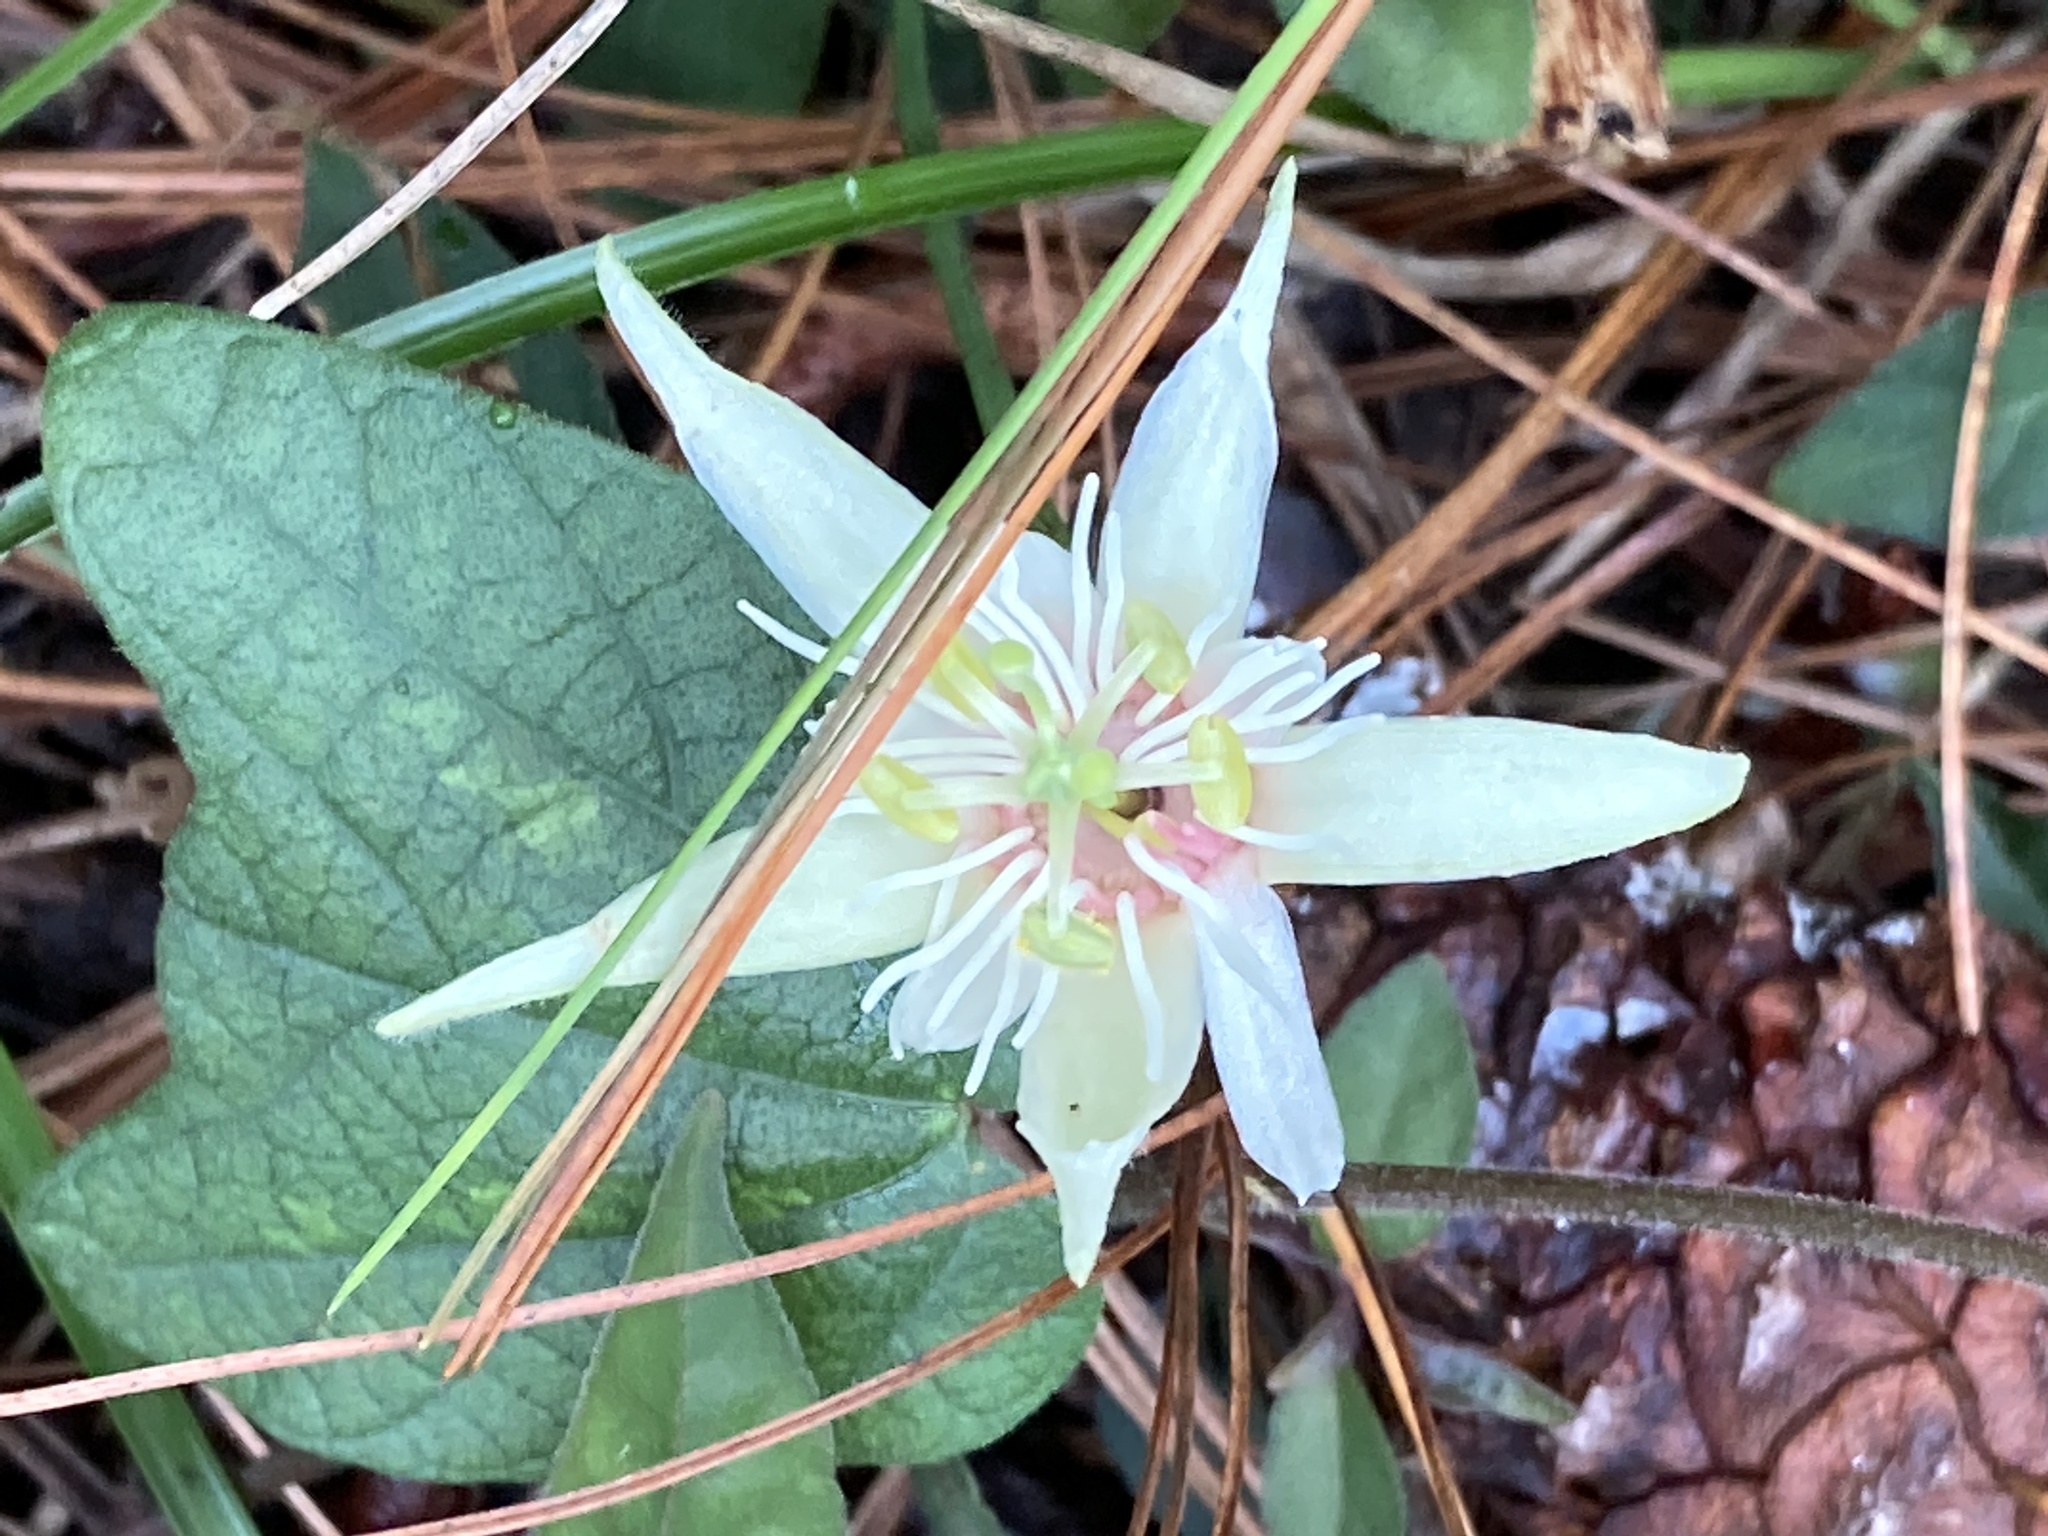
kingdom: Plantae
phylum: Tracheophyta
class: Magnoliopsida
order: Malpighiales
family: Passifloraceae
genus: Passiflora
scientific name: Passiflora capsularis
